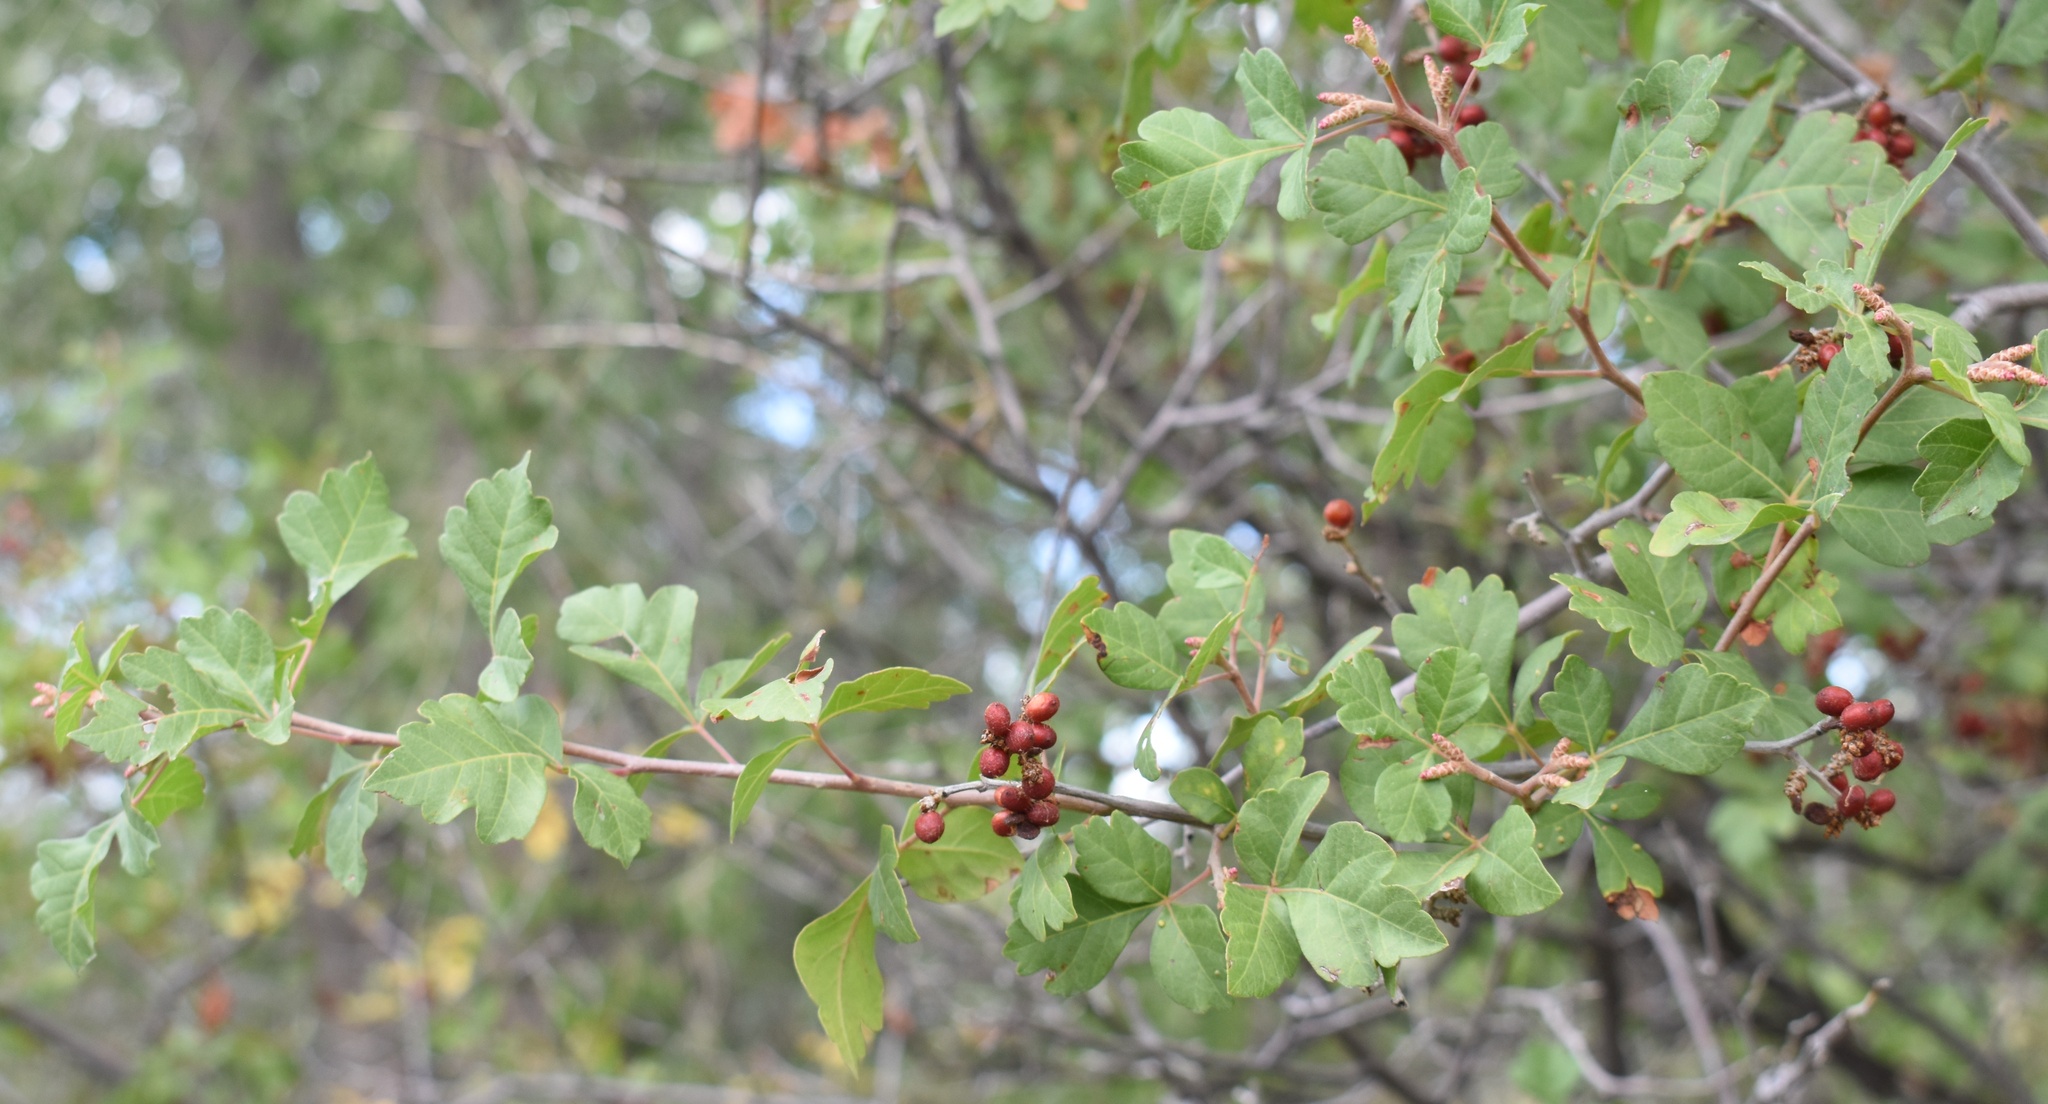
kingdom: Plantae
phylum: Tracheophyta
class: Magnoliopsida
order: Sapindales
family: Anacardiaceae
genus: Rhus
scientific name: Rhus trilobata
